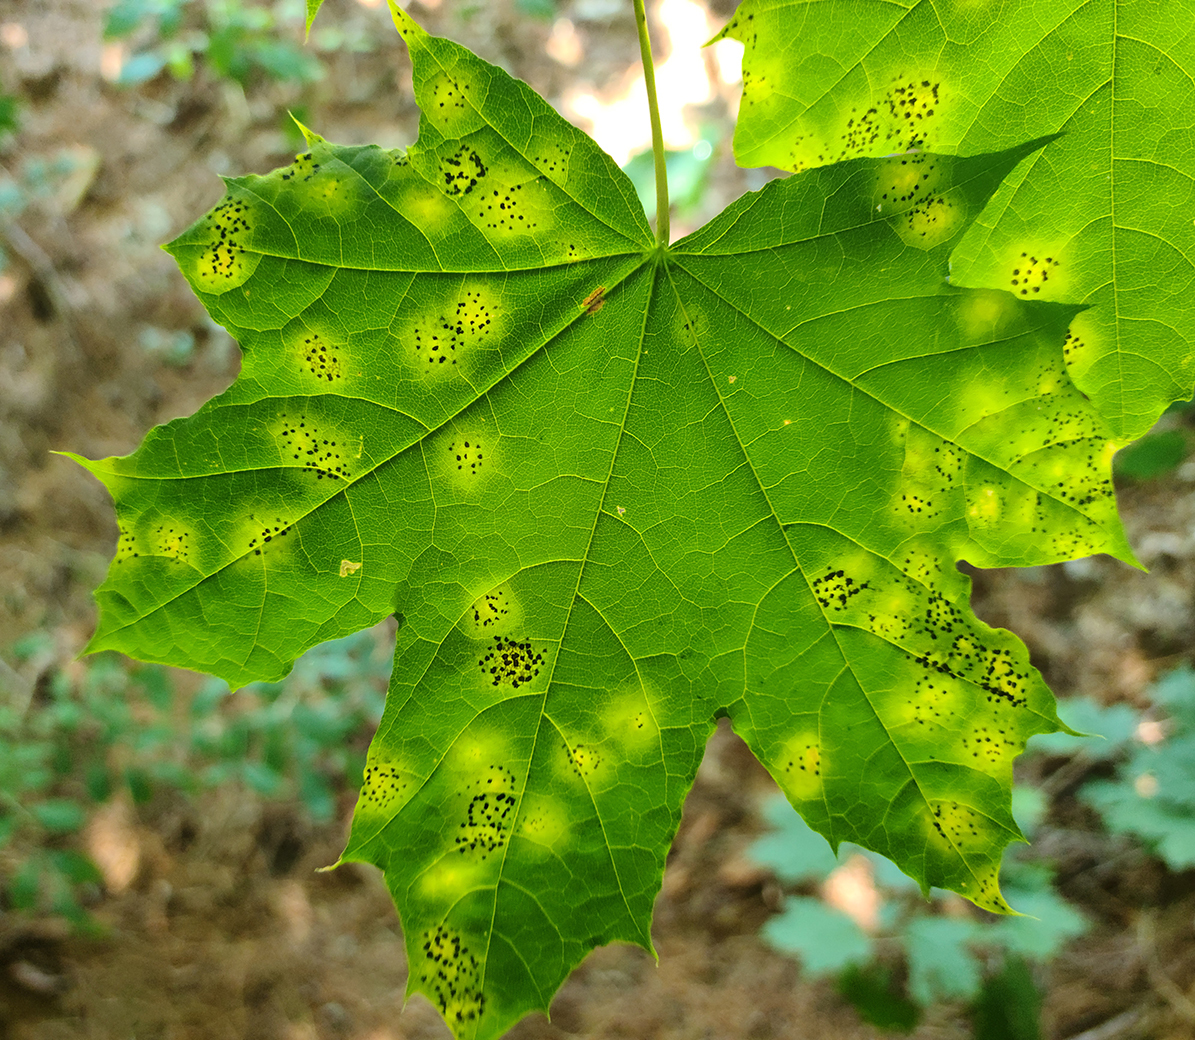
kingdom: Fungi
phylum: Ascomycota
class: Leotiomycetes
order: Rhytismatales
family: Rhytismataceae
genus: Rhytisma
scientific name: Rhytisma acerinum
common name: European tar spot
